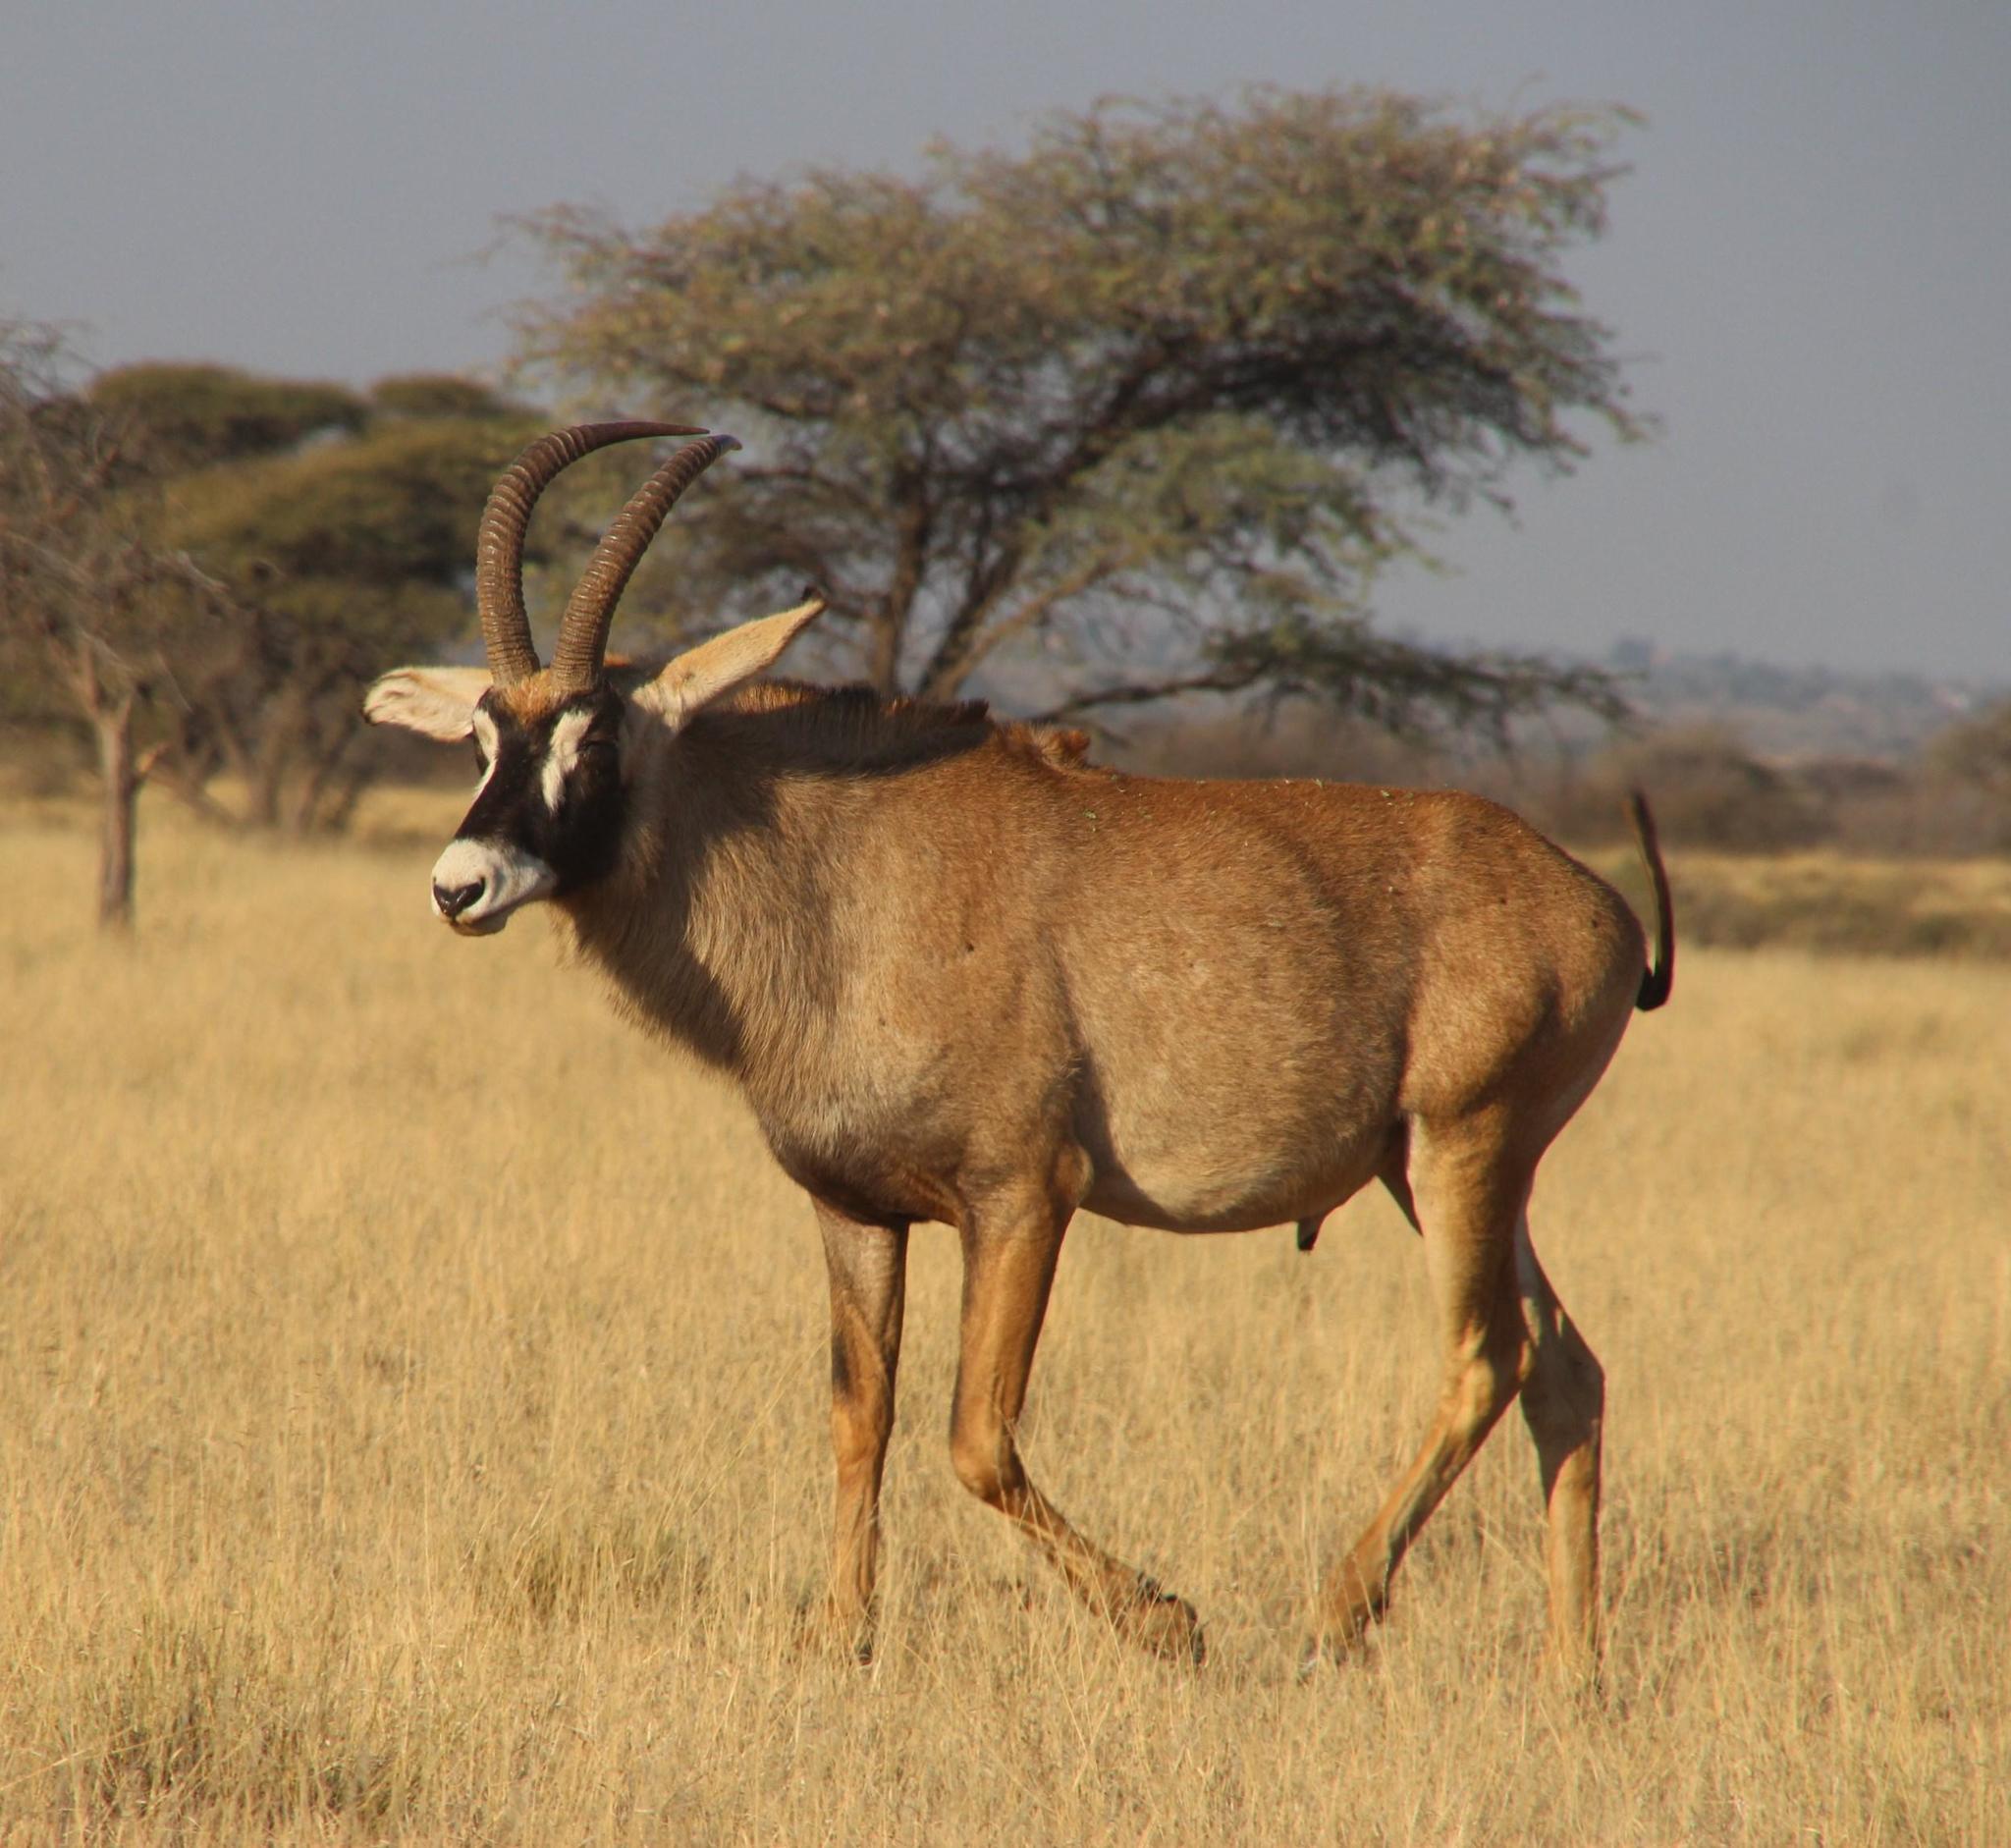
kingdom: Animalia
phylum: Chordata
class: Mammalia
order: Artiodactyla
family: Bovidae
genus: Hippotragus
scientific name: Hippotragus equinus
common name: Roan antelope
